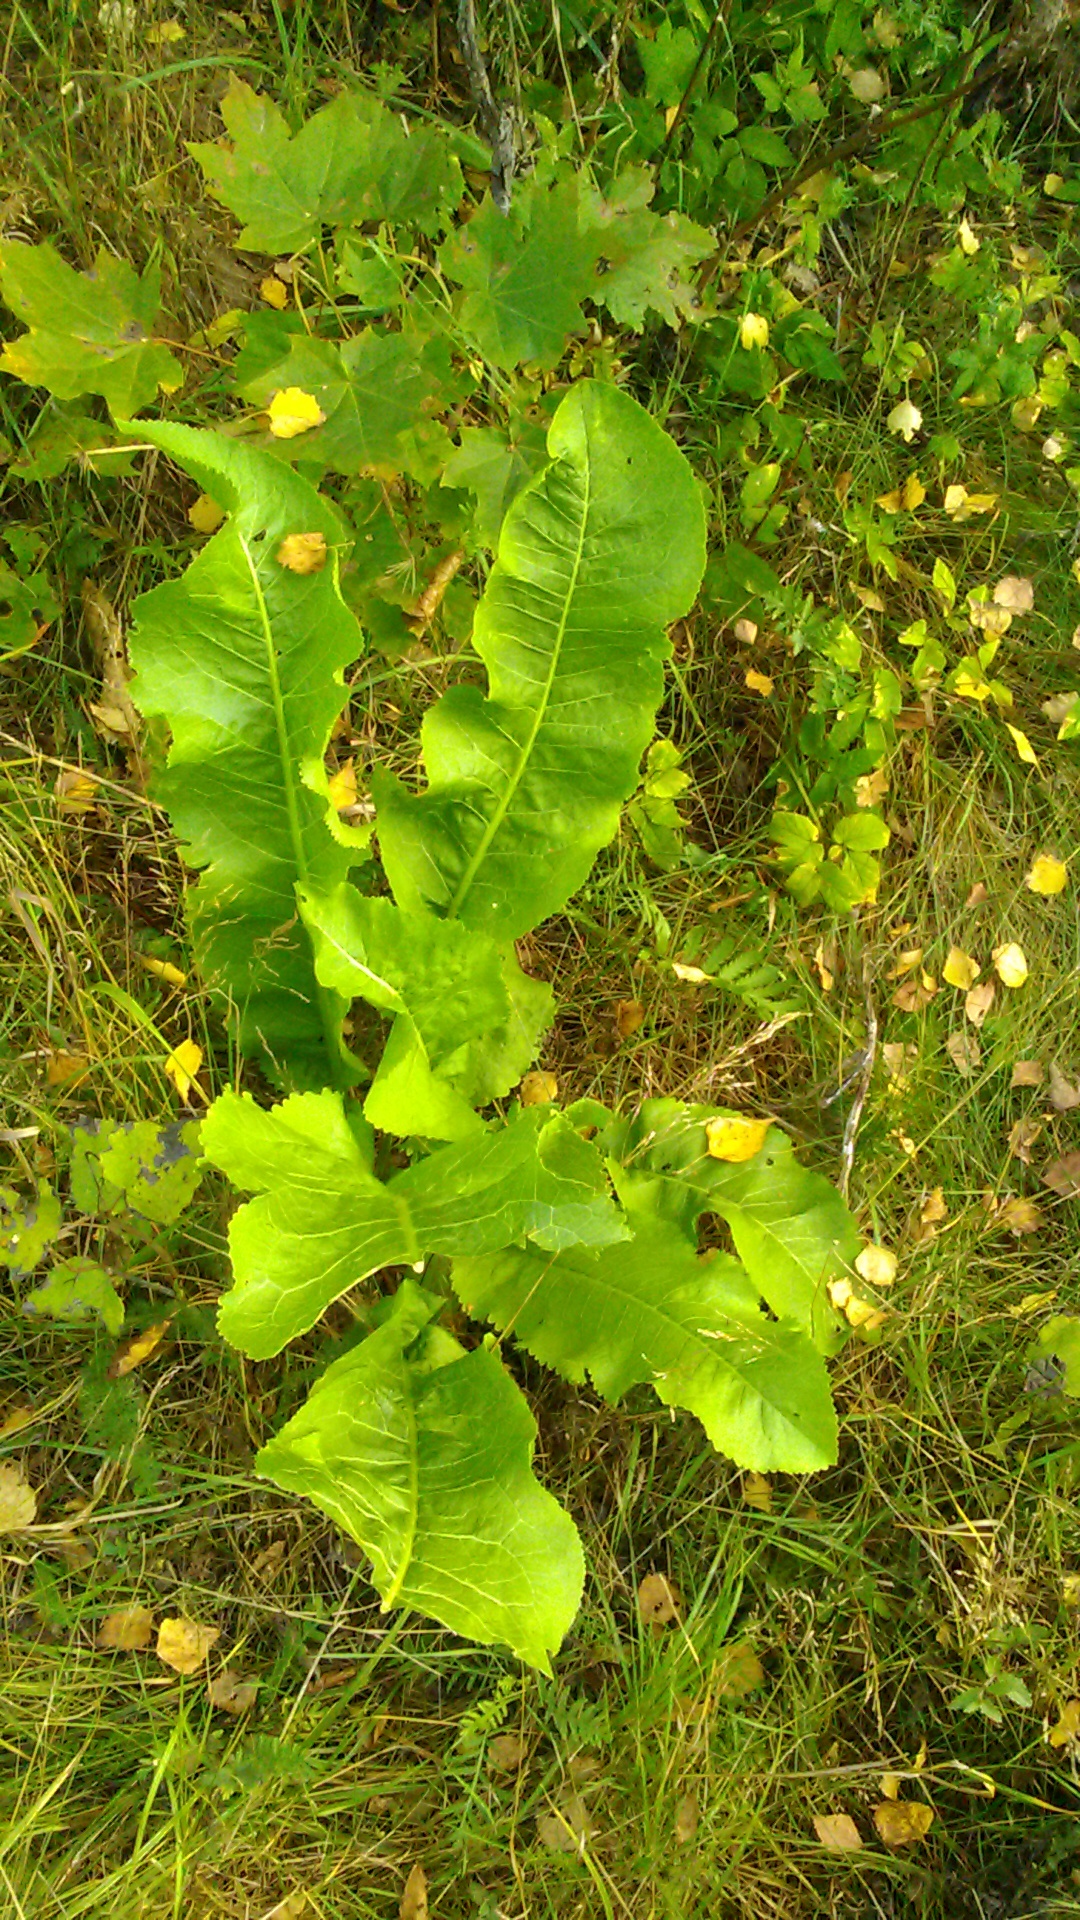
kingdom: Plantae
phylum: Tracheophyta
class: Magnoliopsida
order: Brassicales
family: Brassicaceae
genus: Armoracia
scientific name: Armoracia rusticana
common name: Horseradish
